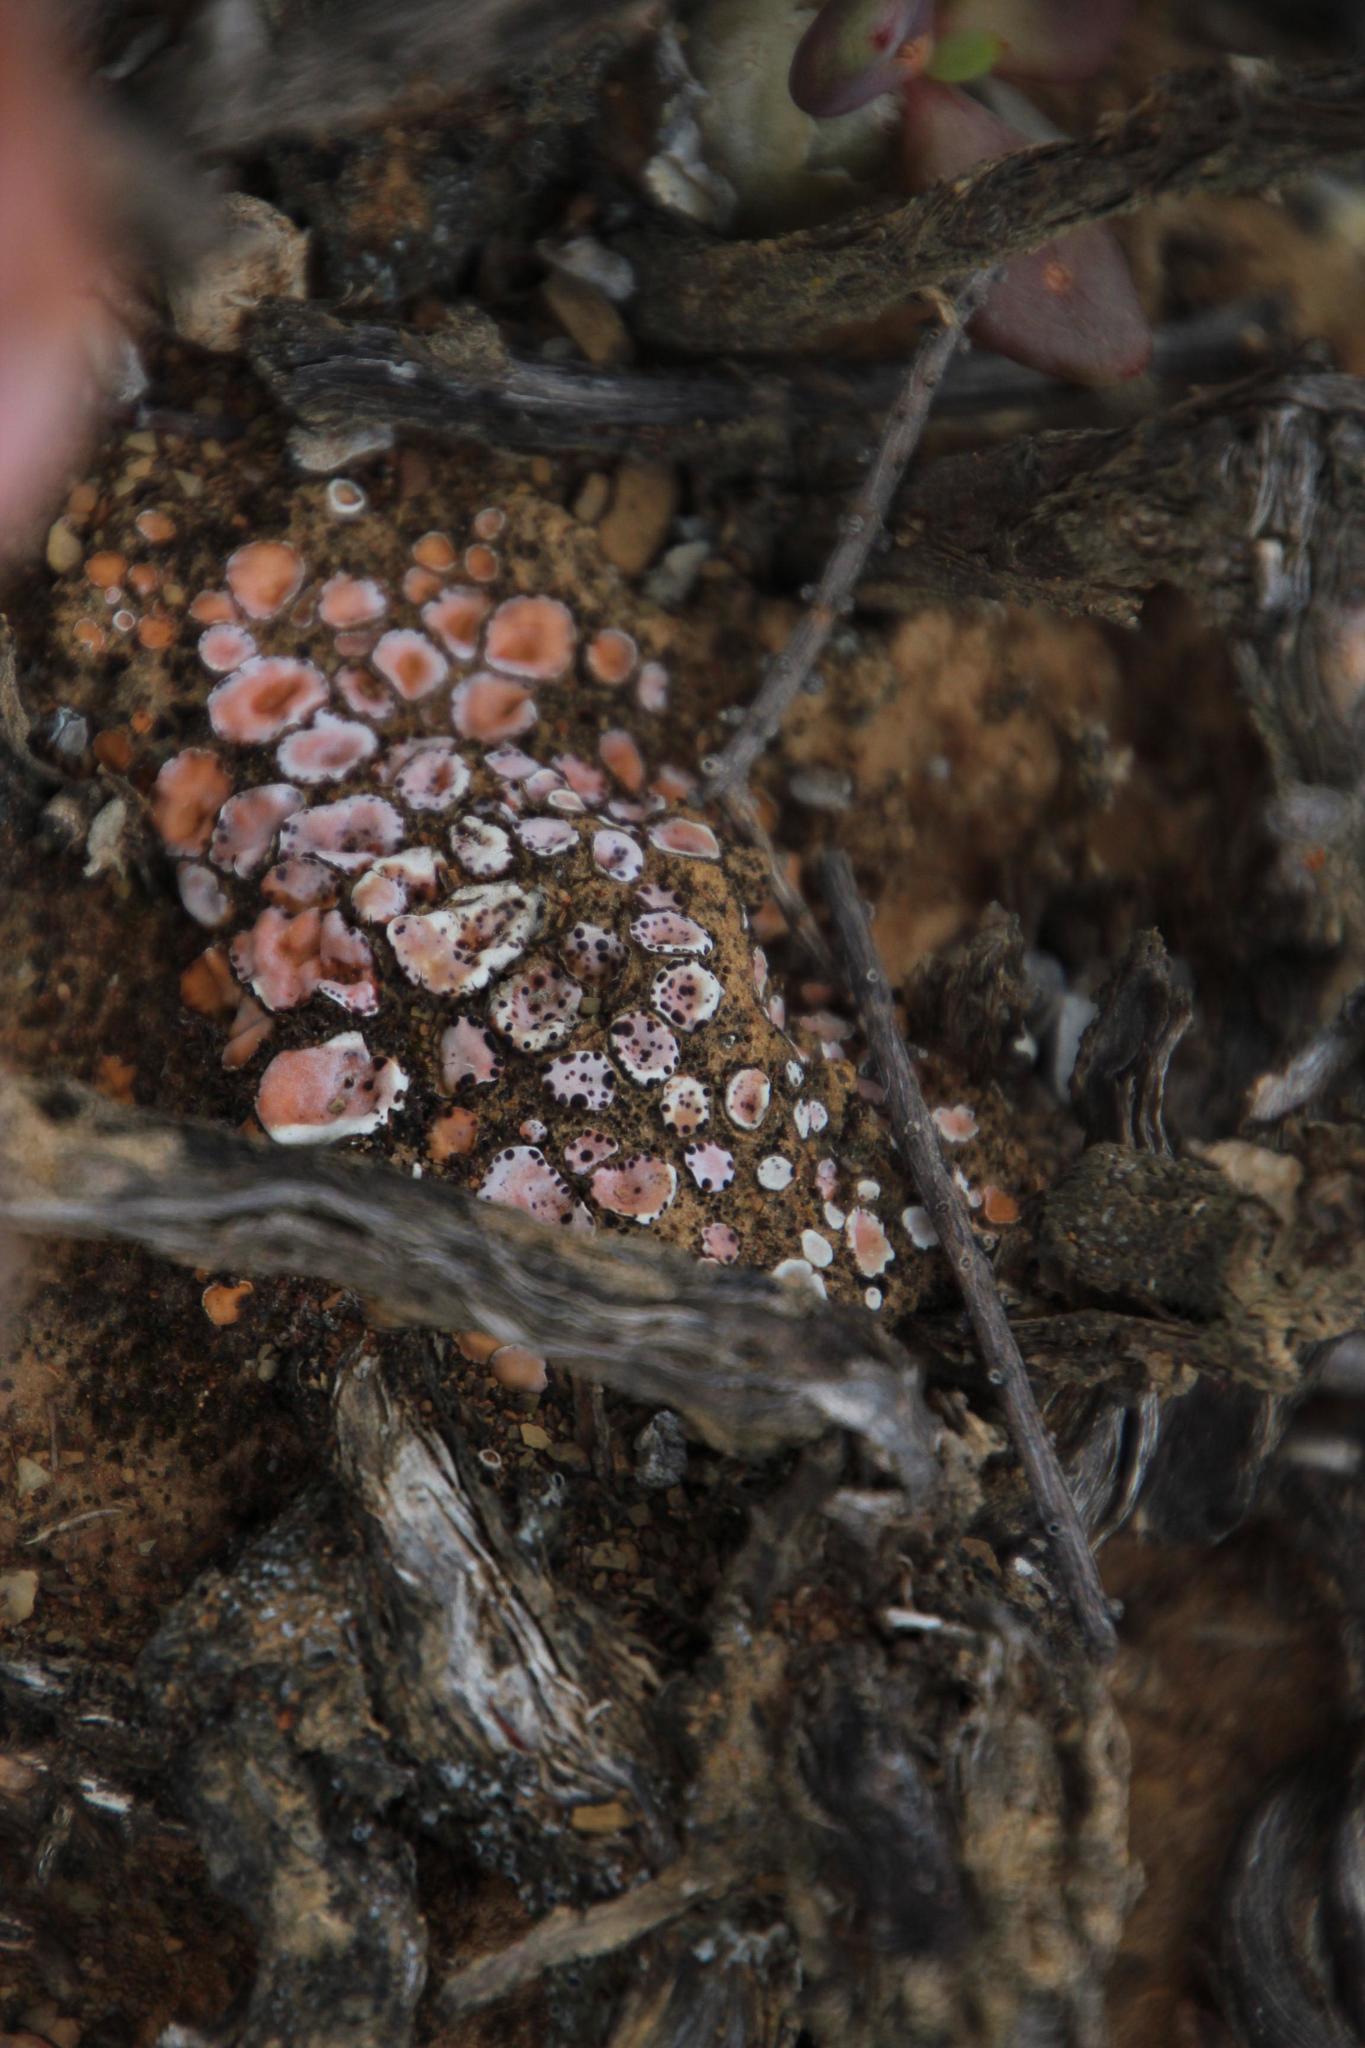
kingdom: Fungi
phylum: Ascomycota
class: Lecanoromycetes
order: Lecanorales
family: Psoraceae
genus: Psora
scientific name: Psora crenata
